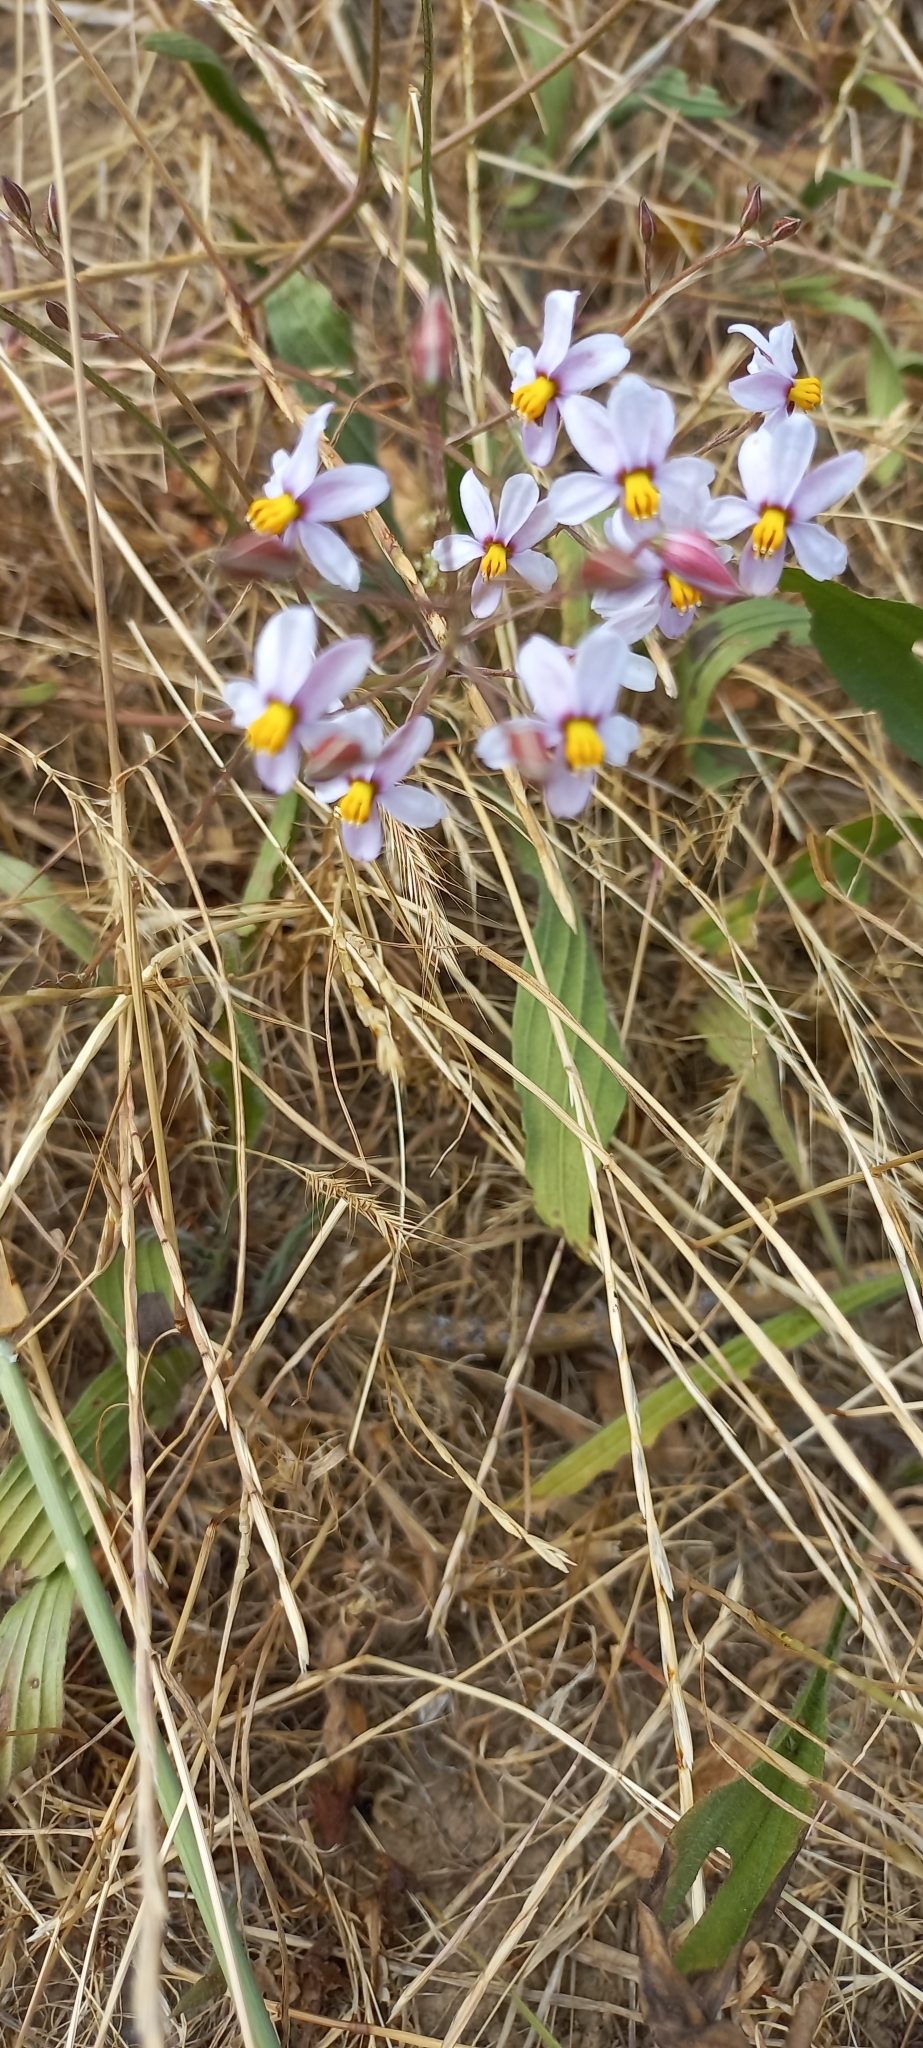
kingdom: Plantae
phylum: Tracheophyta
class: Liliopsida
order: Asparagales
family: Tecophilaeaceae
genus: Cyanella
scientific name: Cyanella hyacinthoides
